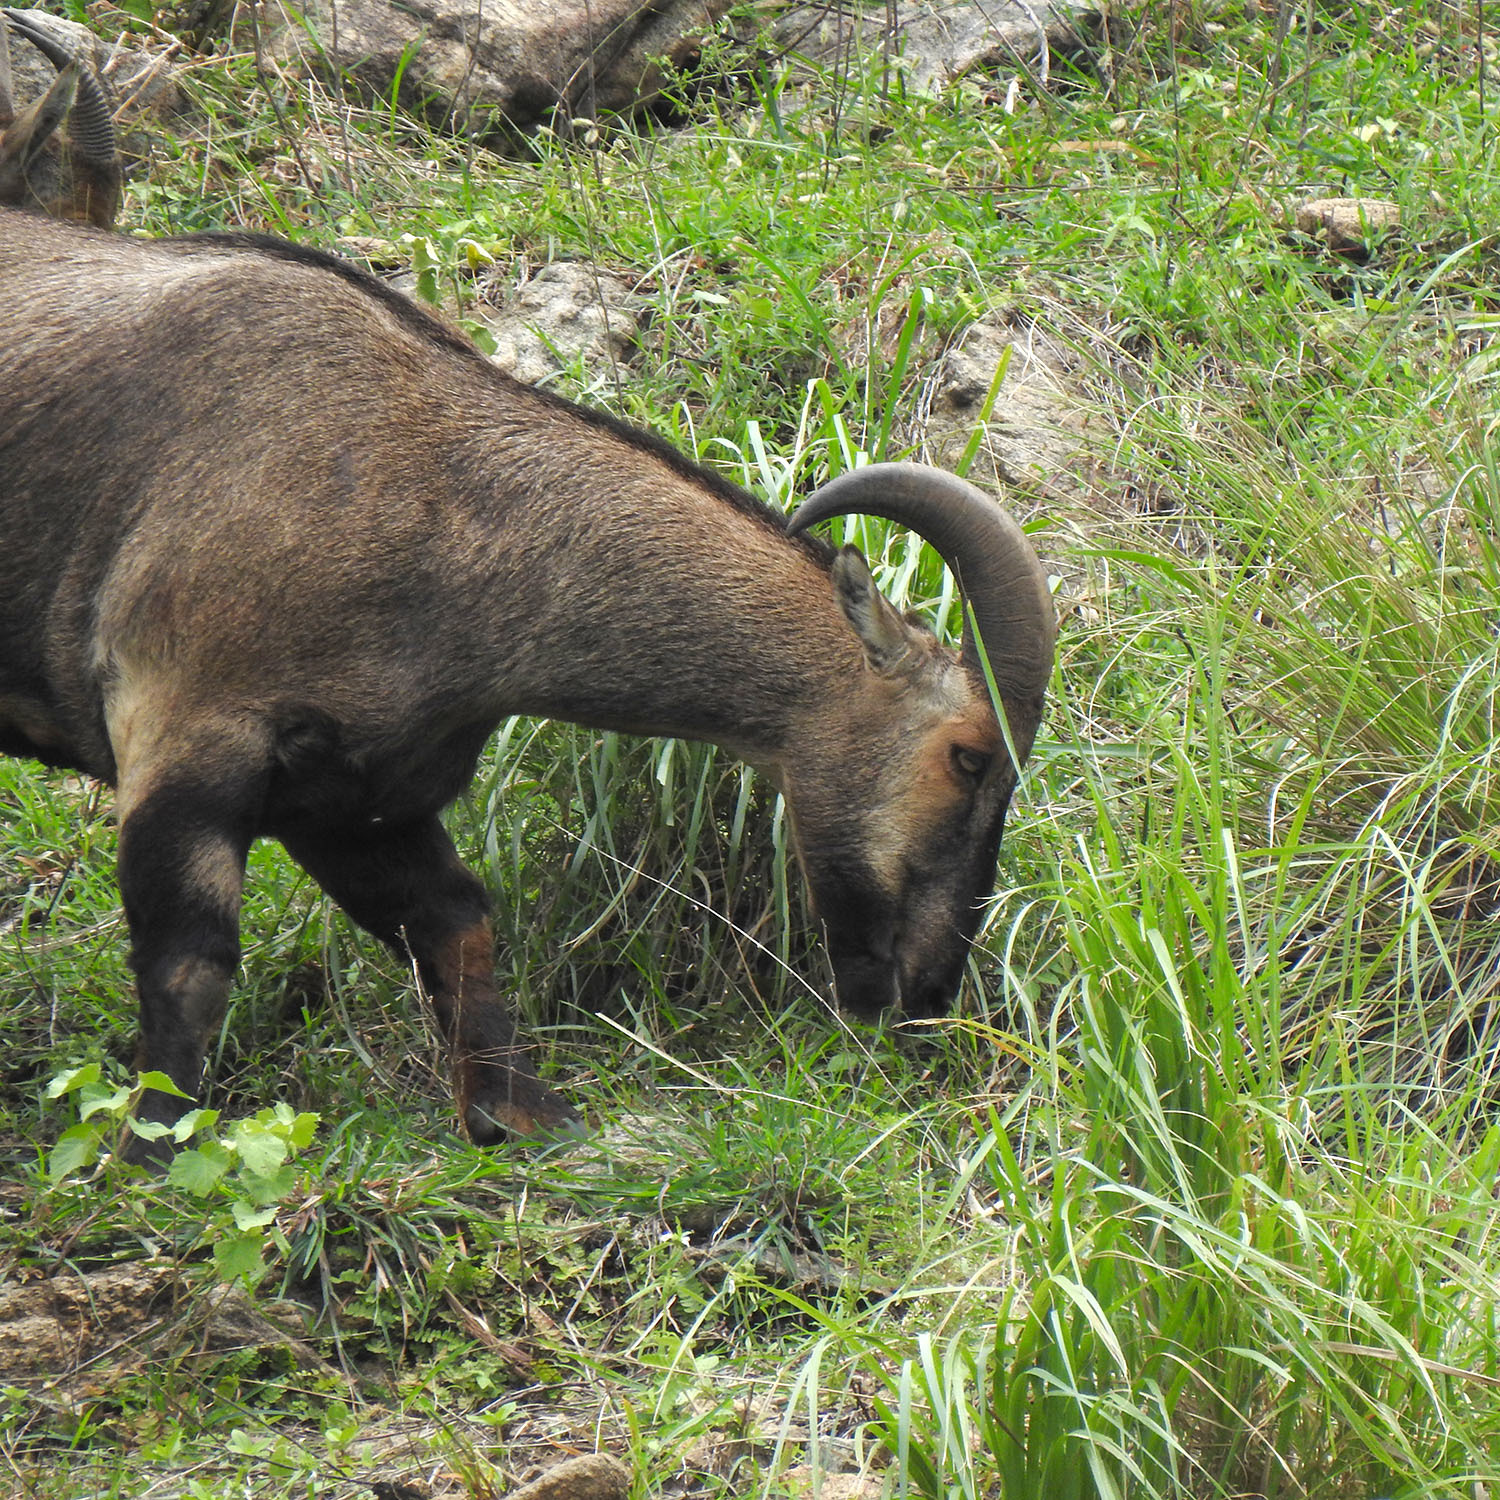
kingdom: Animalia
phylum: Chordata
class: Mammalia
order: Artiodactyla
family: Bovidae
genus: Hemitragus
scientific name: Hemitragus hylocrius
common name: Nilgiri tahr
